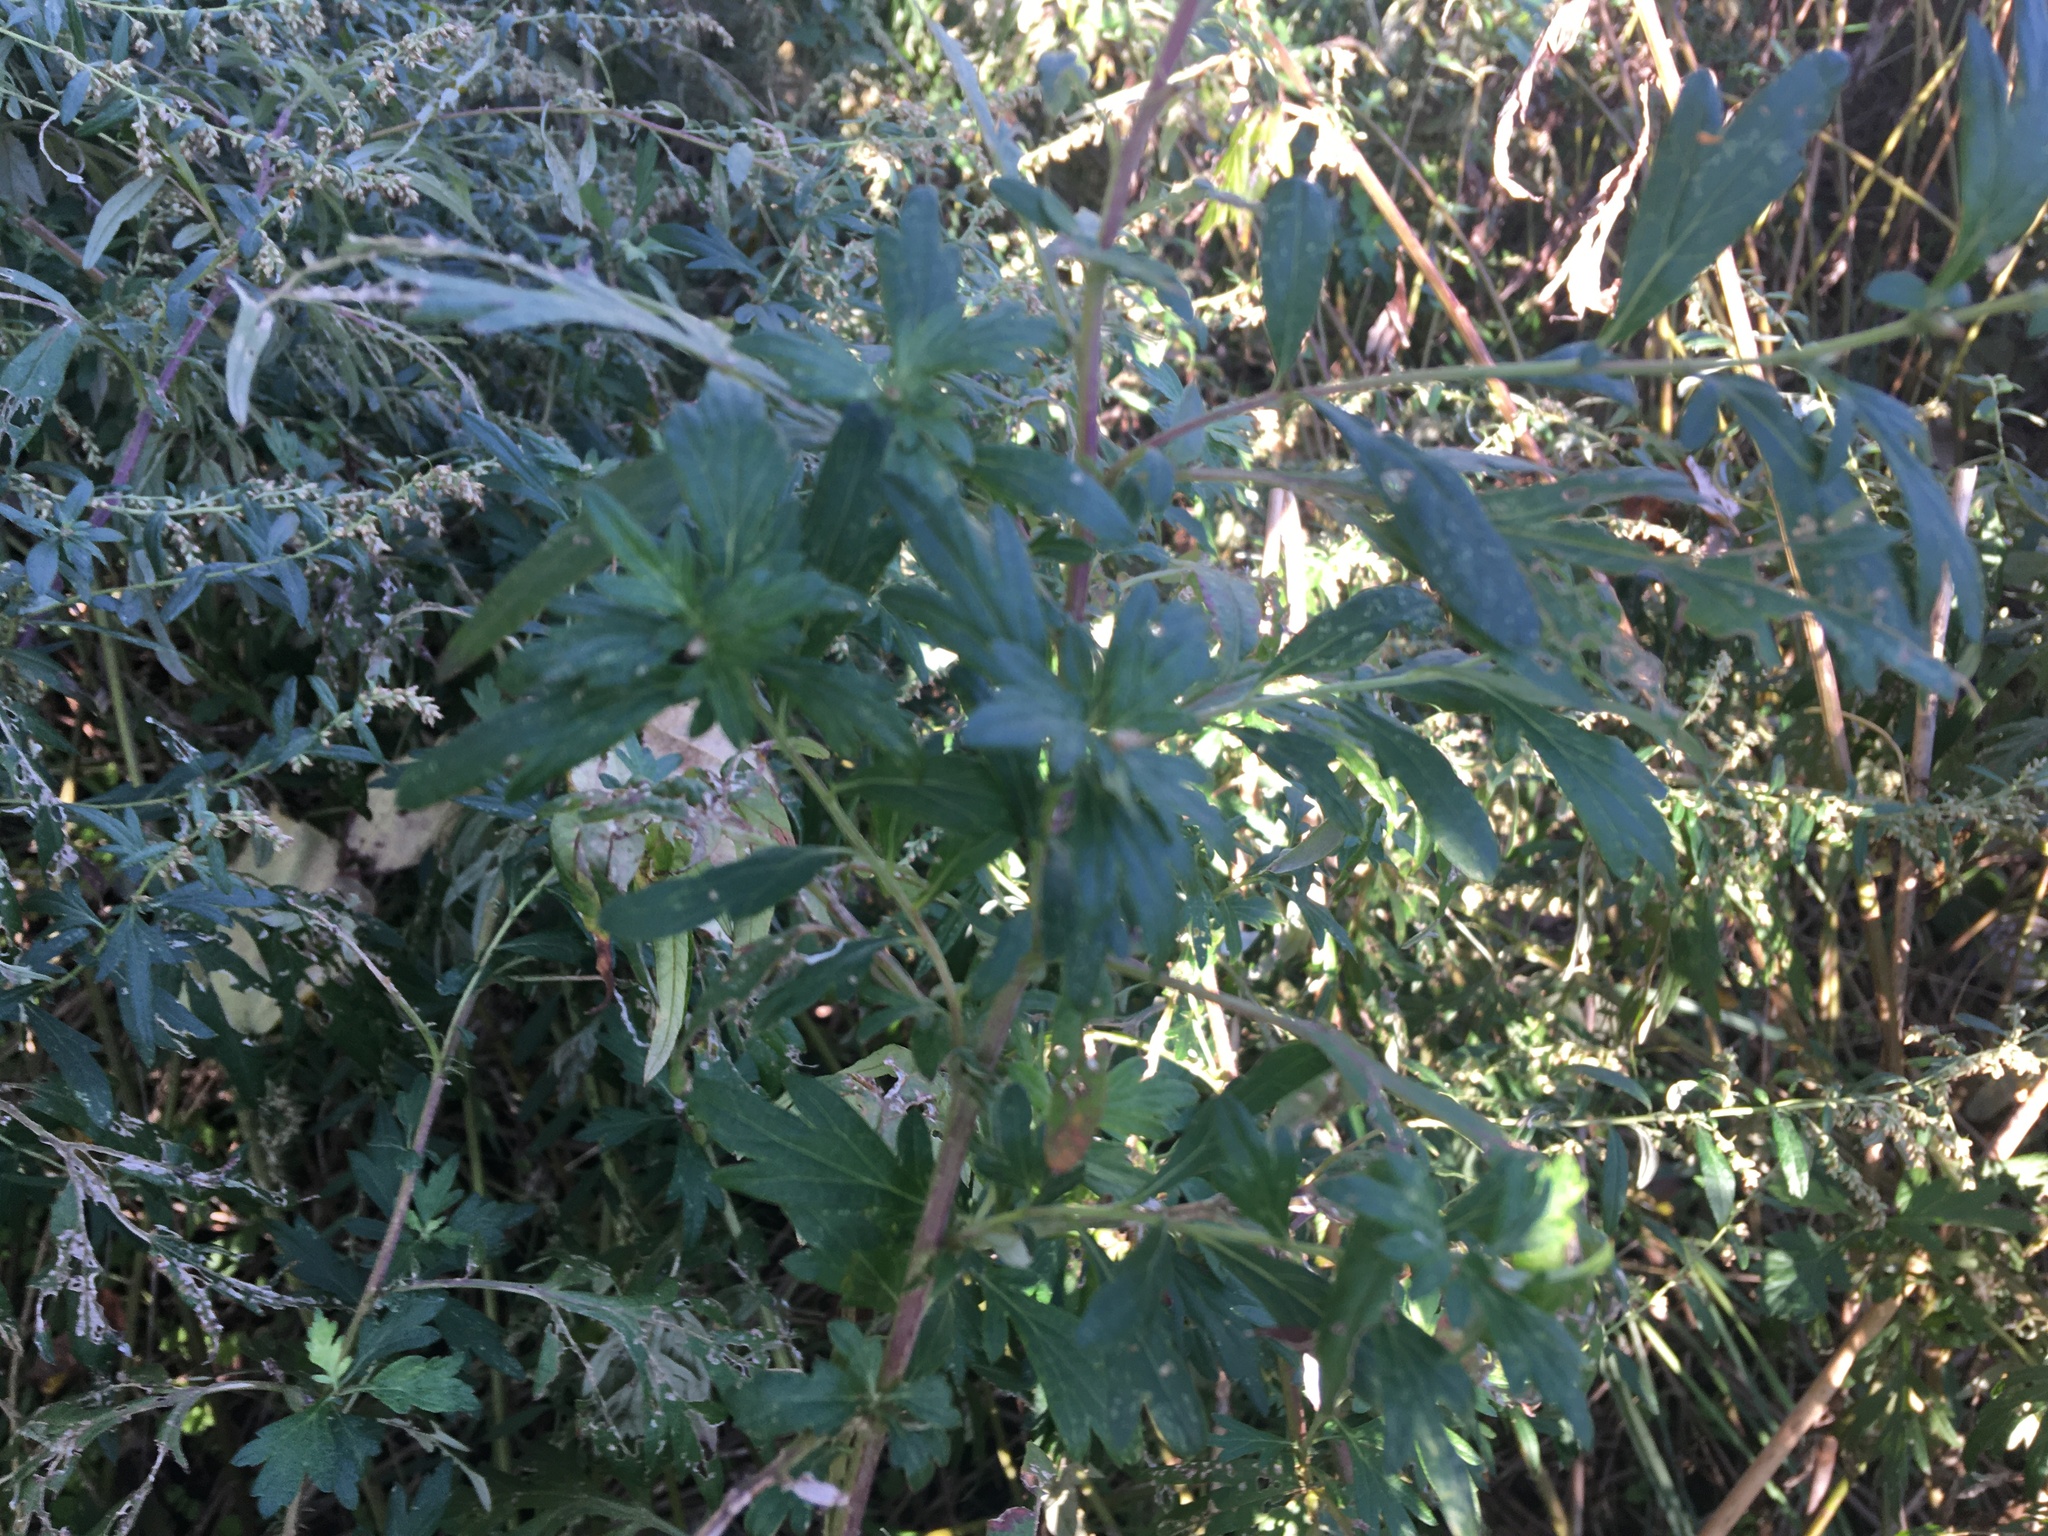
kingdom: Plantae
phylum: Tracheophyta
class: Magnoliopsida
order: Asterales
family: Asteraceae
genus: Artemisia
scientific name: Artemisia vulgaris
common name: Mugwort
